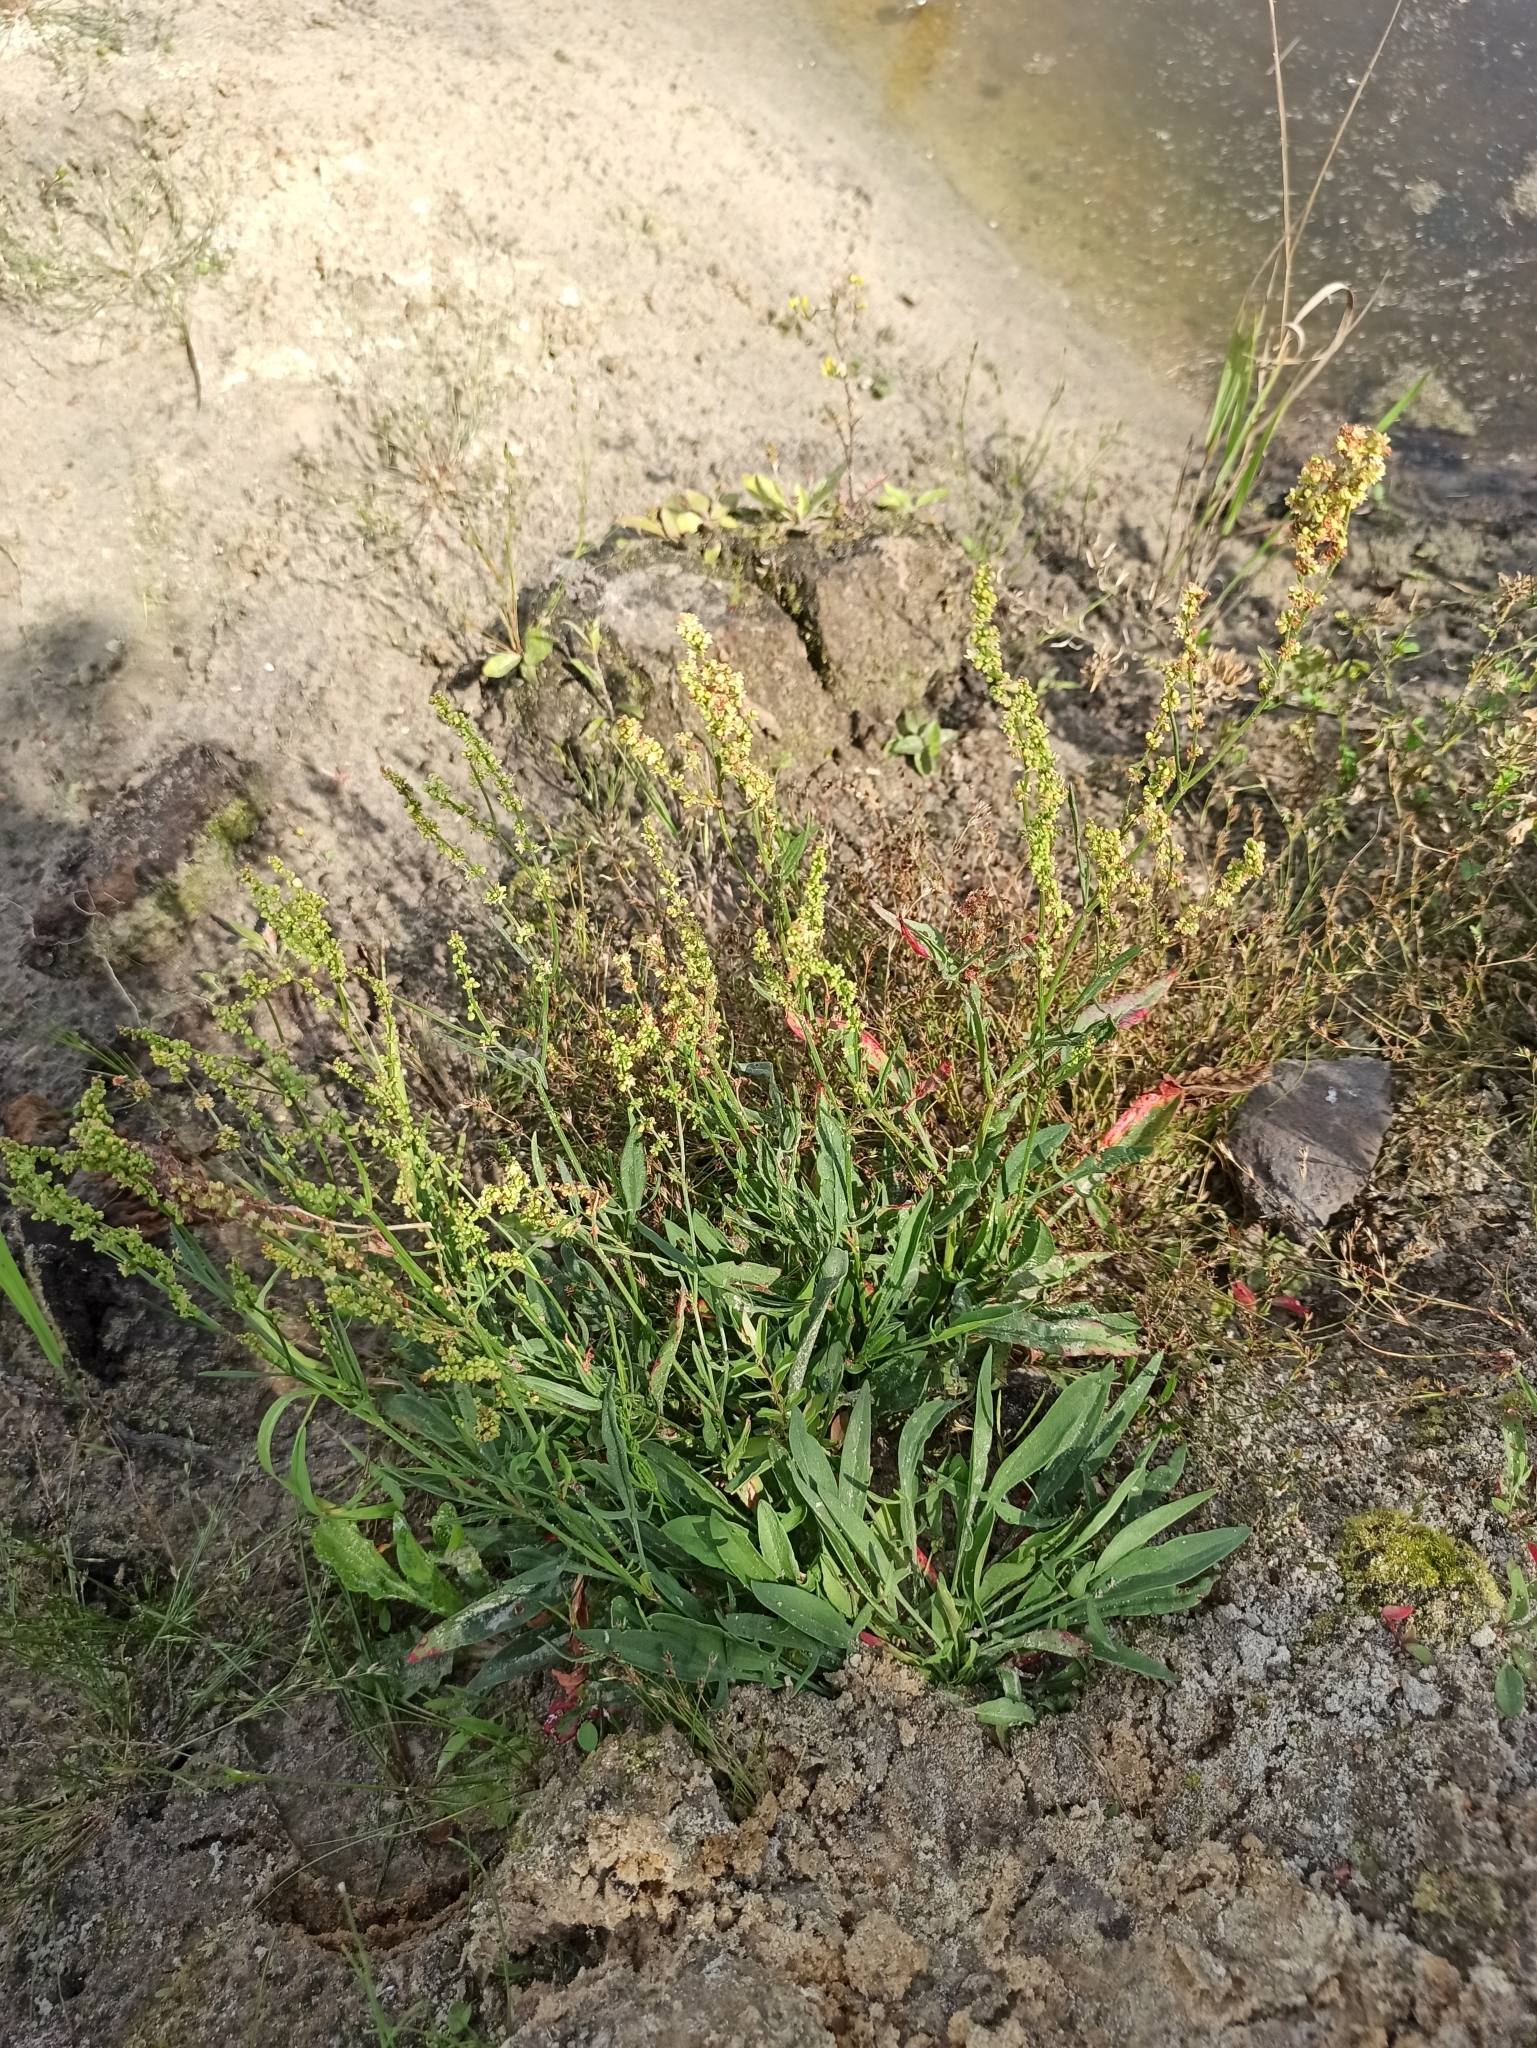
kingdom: Plantae
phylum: Tracheophyta
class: Magnoliopsida
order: Caryophyllales
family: Polygonaceae
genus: Rumex
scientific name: Rumex acetosella
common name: Common sheep sorrel
